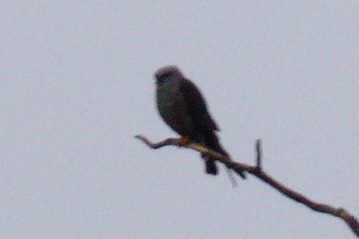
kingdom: Animalia
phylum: Chordata
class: Aves
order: Accipitriformes
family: Accipitridae
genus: Ictinia
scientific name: Ictinia plumbea
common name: Plumbeous kite
